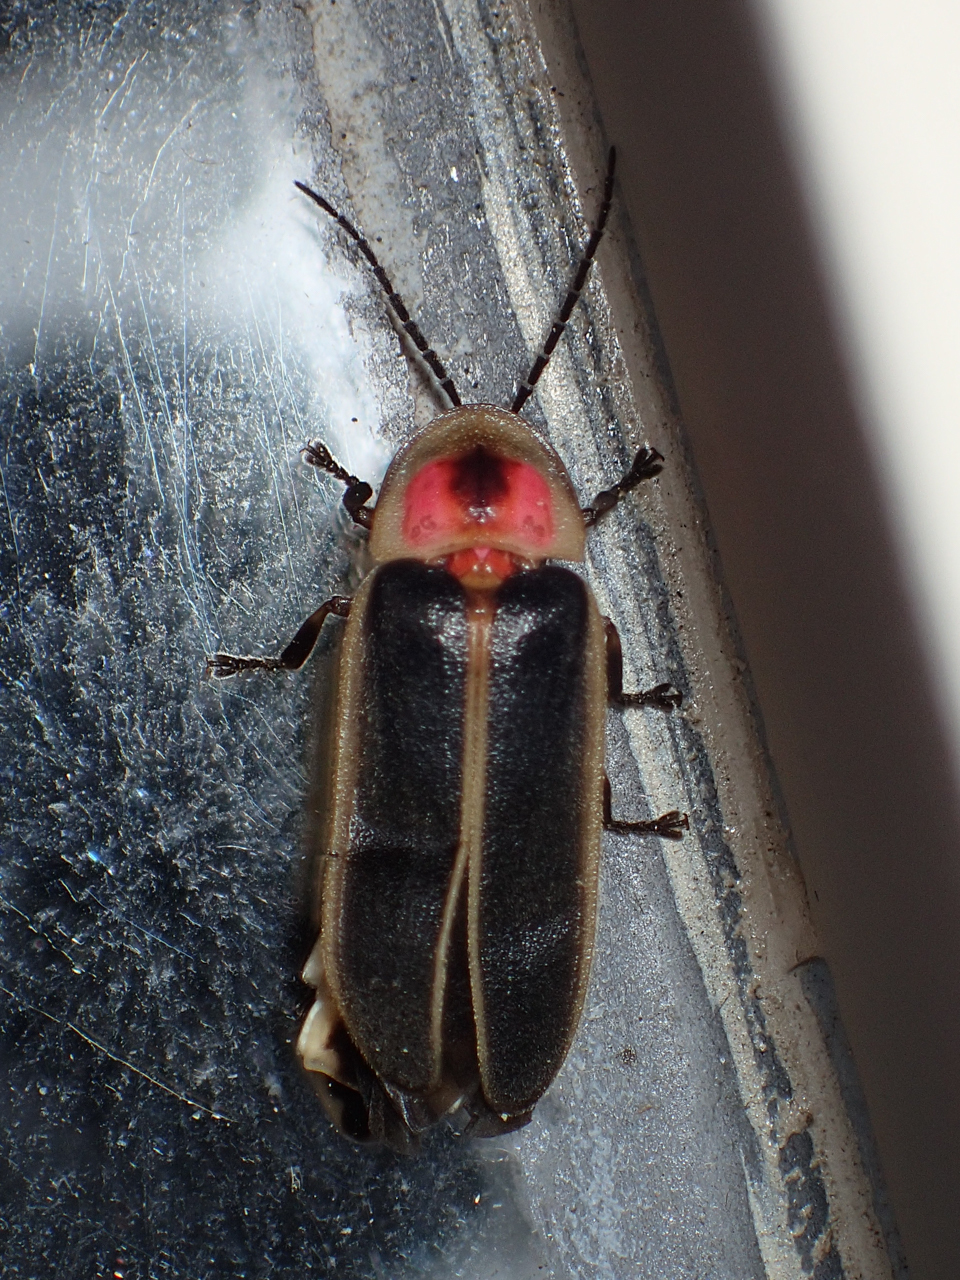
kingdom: Animalia
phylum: Arthropoda
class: Insecta
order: Coleoptera
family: Lampyridae
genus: Photinus
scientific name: Photinus pyralis
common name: Big dipper firefly
